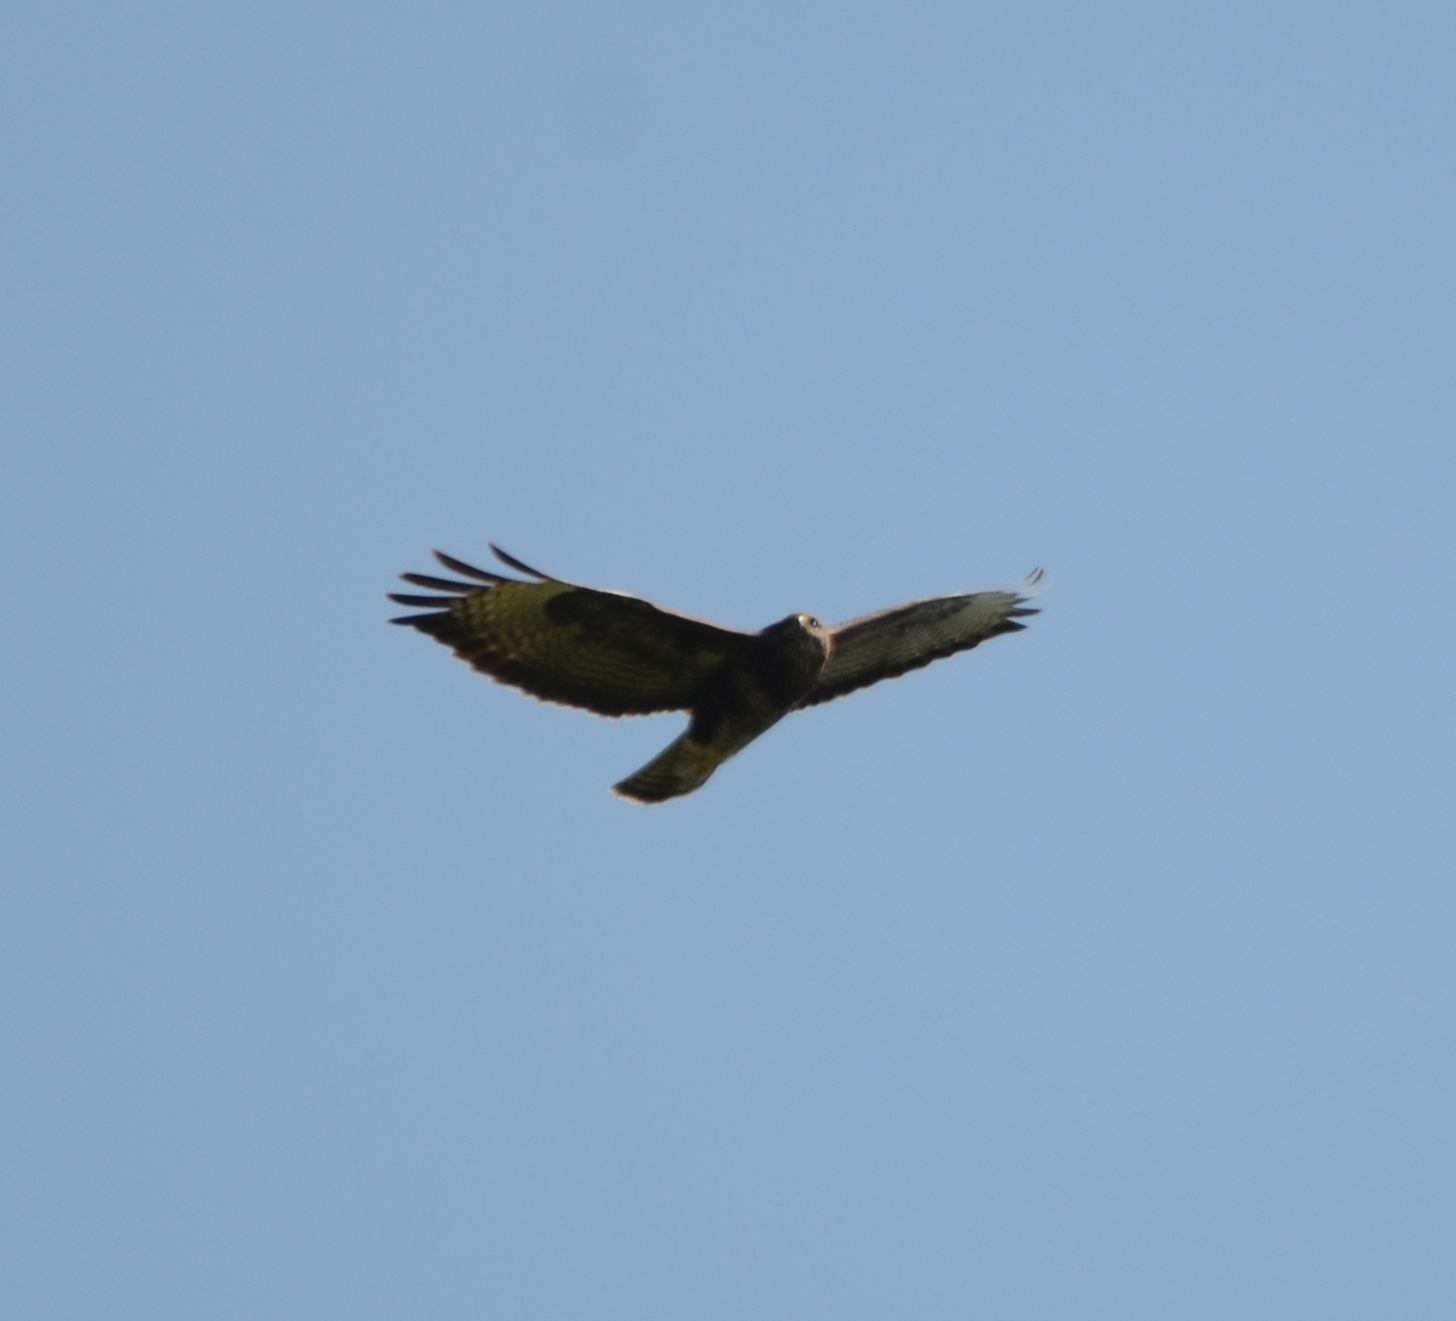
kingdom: Animalia
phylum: Chordata
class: Aves
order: Accipitriformes
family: Accipitridae
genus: Buteo
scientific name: Buteo buteo
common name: Common buzzard
